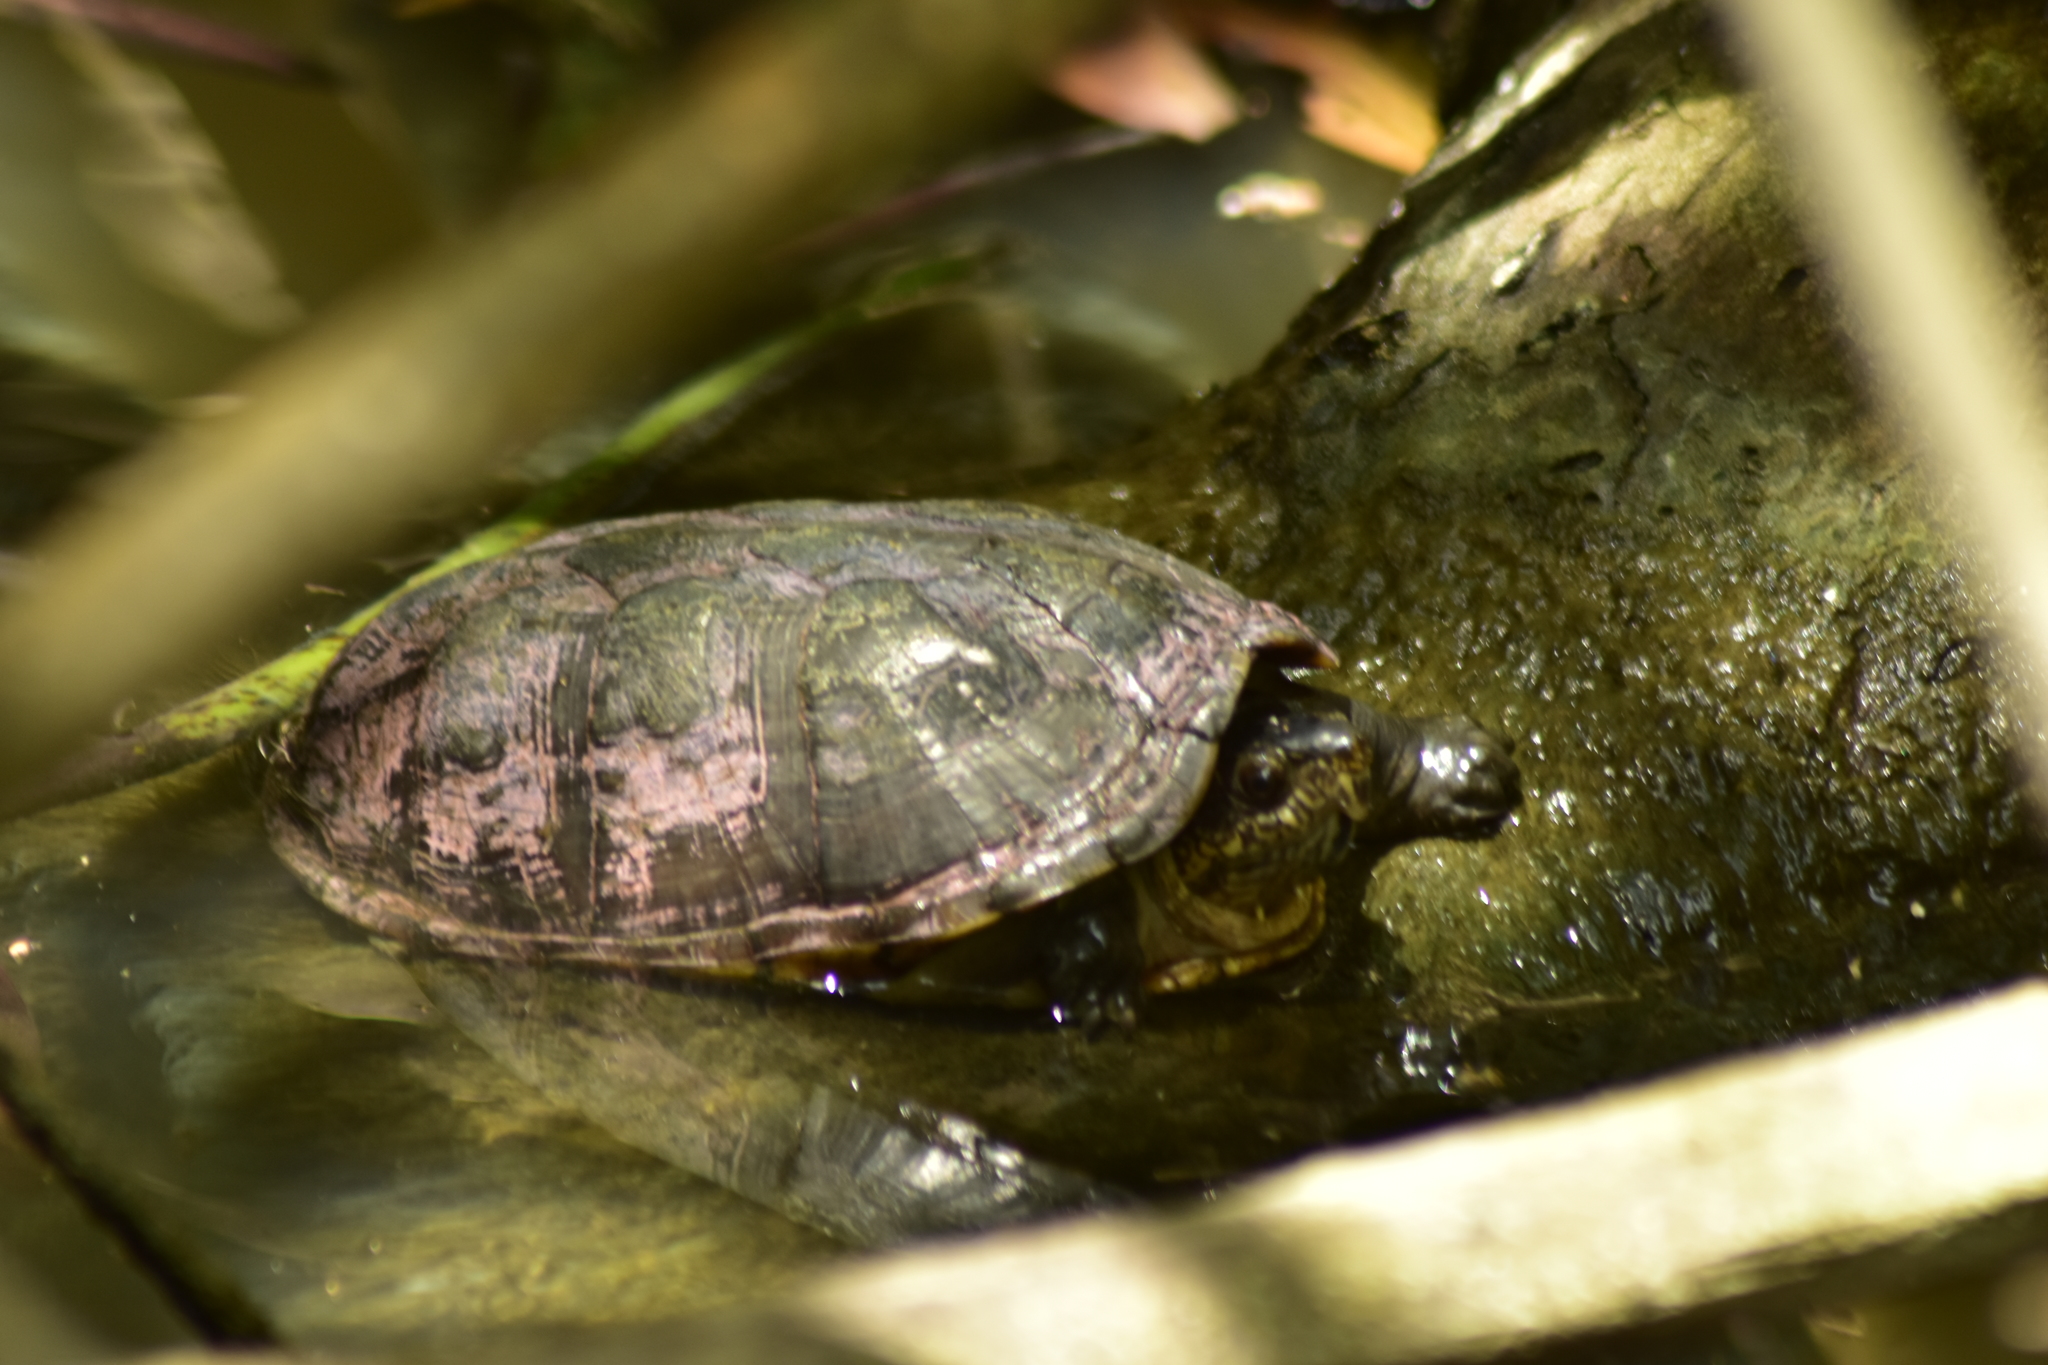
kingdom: Animalia
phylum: Chordata
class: Testudines
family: Kinosternidae
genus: Kinosternon
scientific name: Kinosternon chimalhuaca
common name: Jalisco mud turtle
